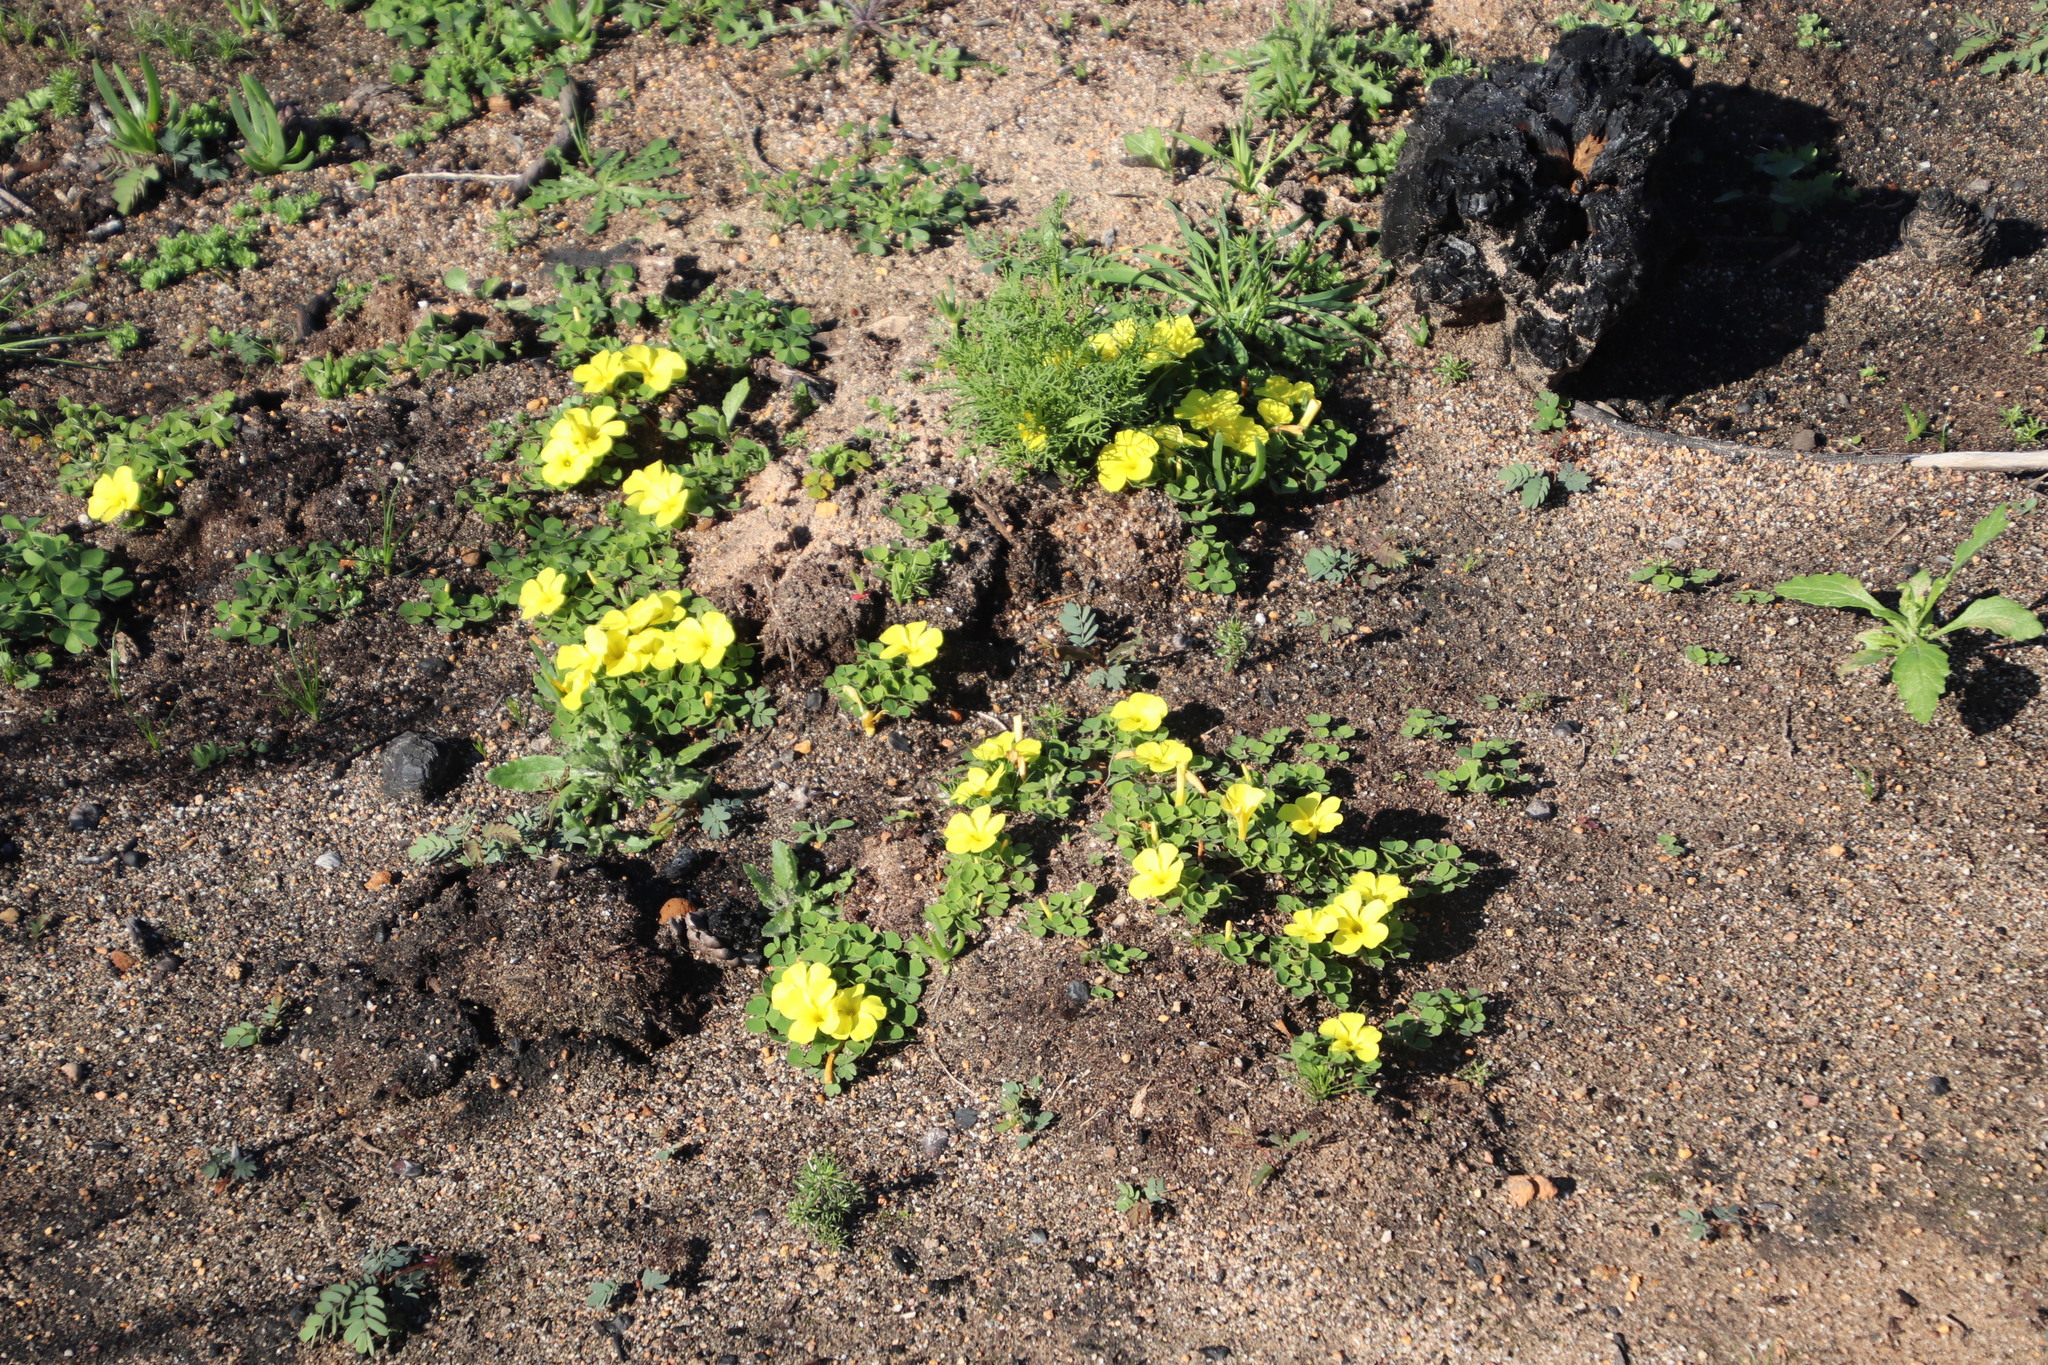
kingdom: Plantae
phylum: Tracheophyta
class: Magnoliopsida
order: Oxalidales
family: Oxalidaceae
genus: Oxalis
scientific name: Oxalis luteola
